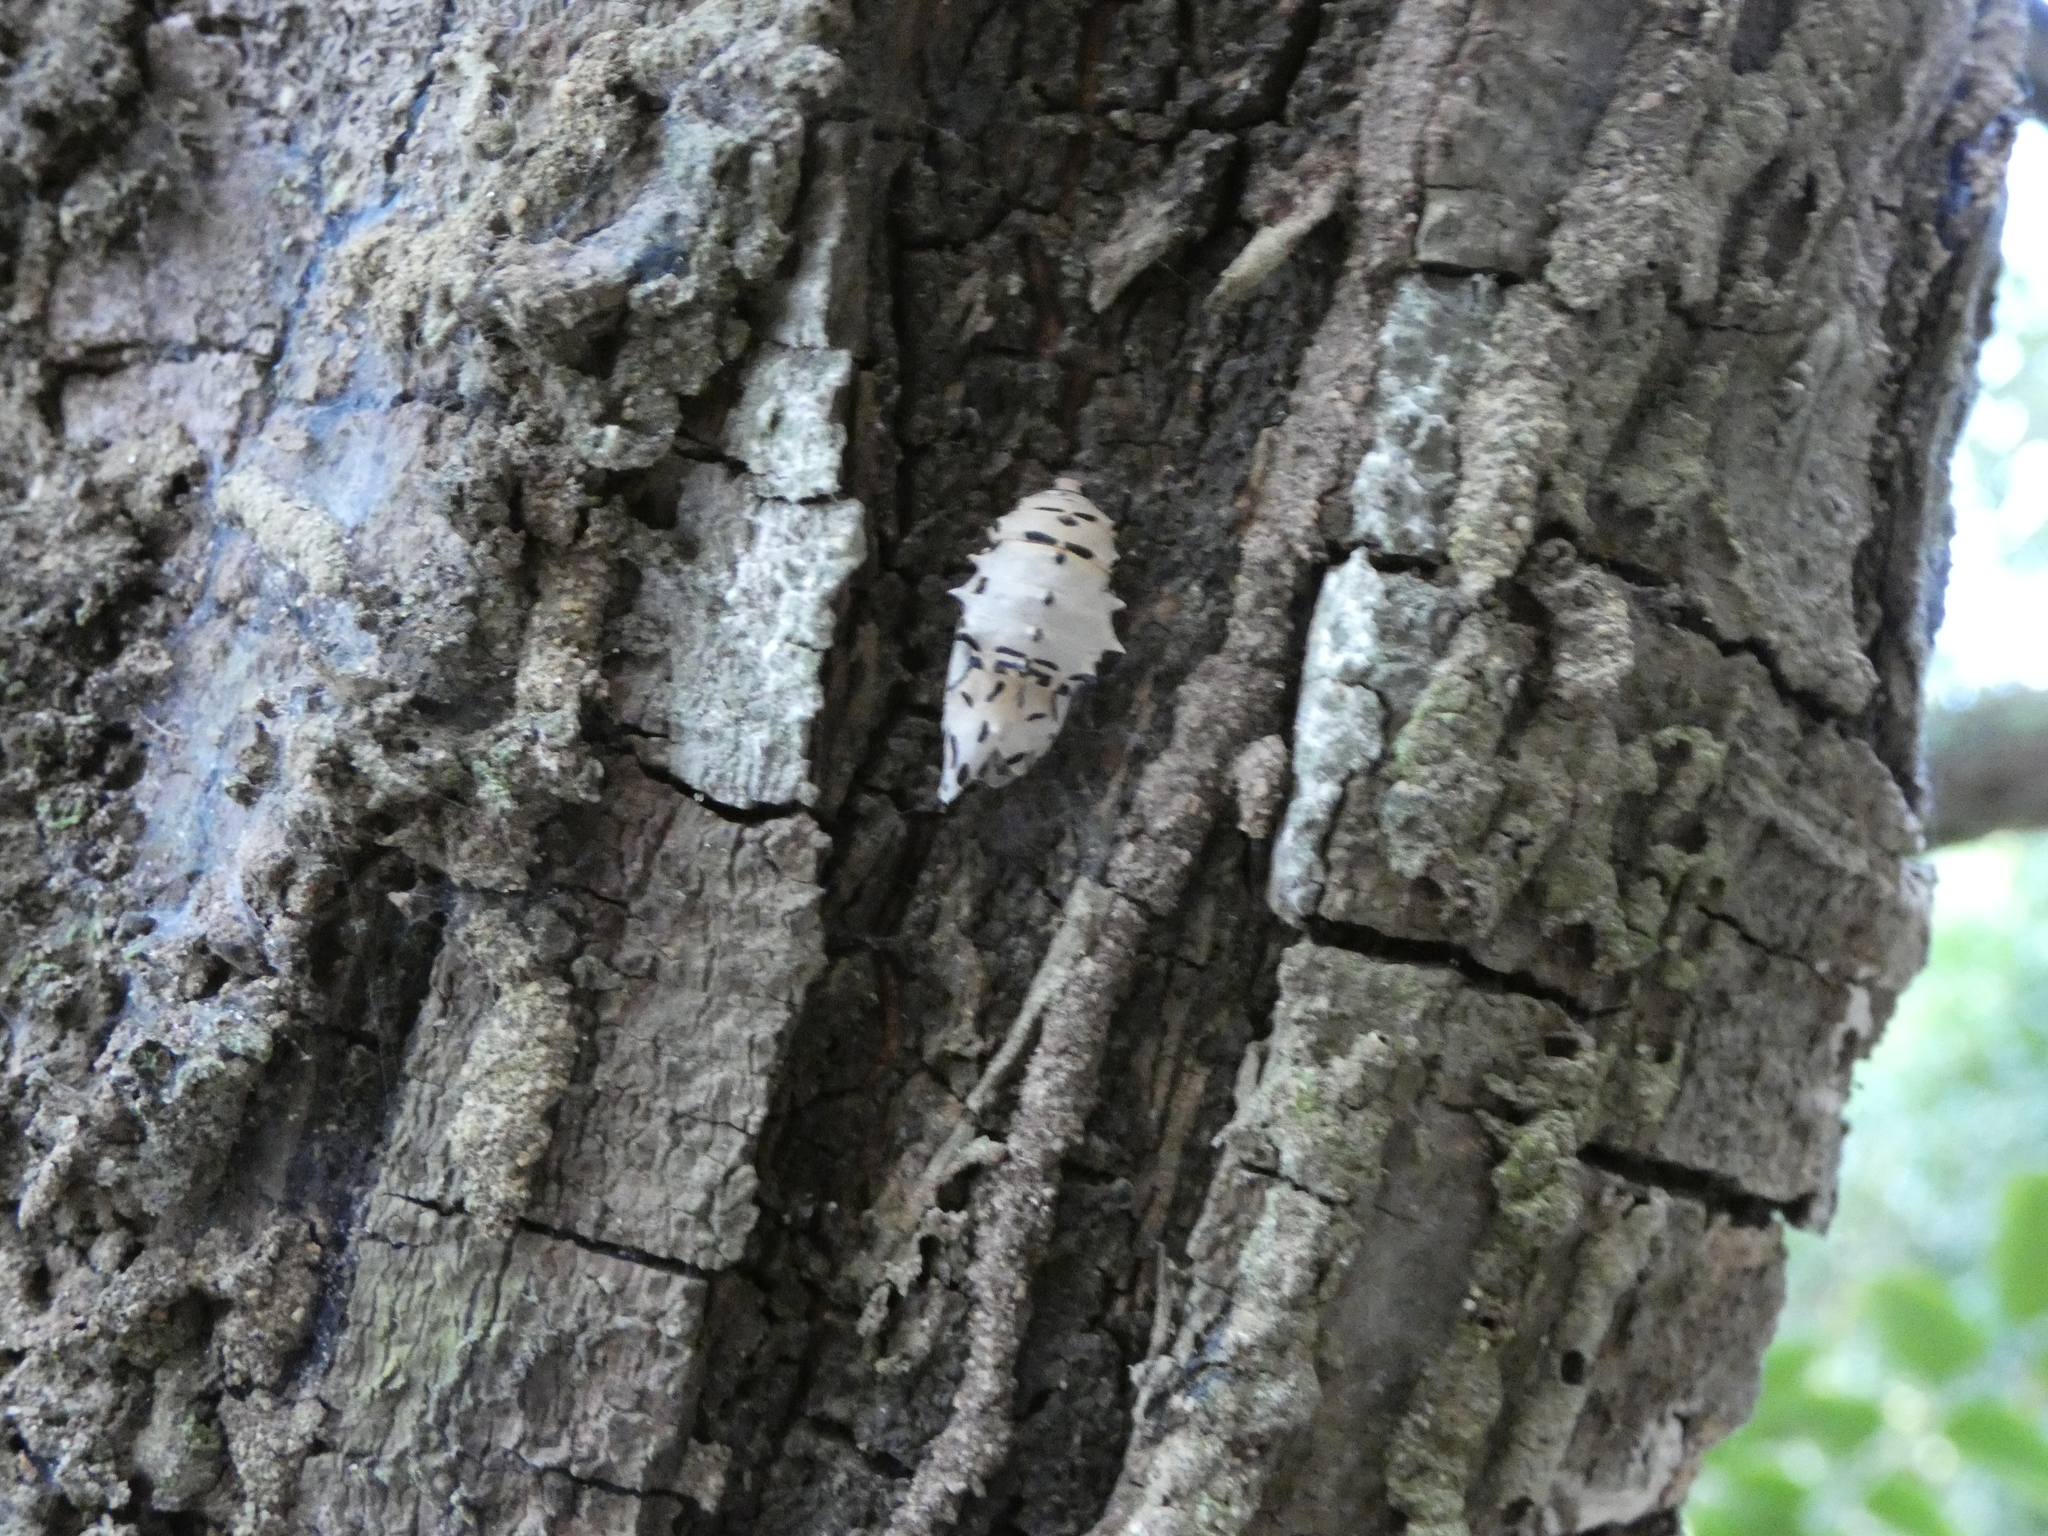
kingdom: Animalia
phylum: Arthropoda
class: Insecta
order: Lepidoptera
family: Riodinidae
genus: Rhetus
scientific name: Rhetus periander
